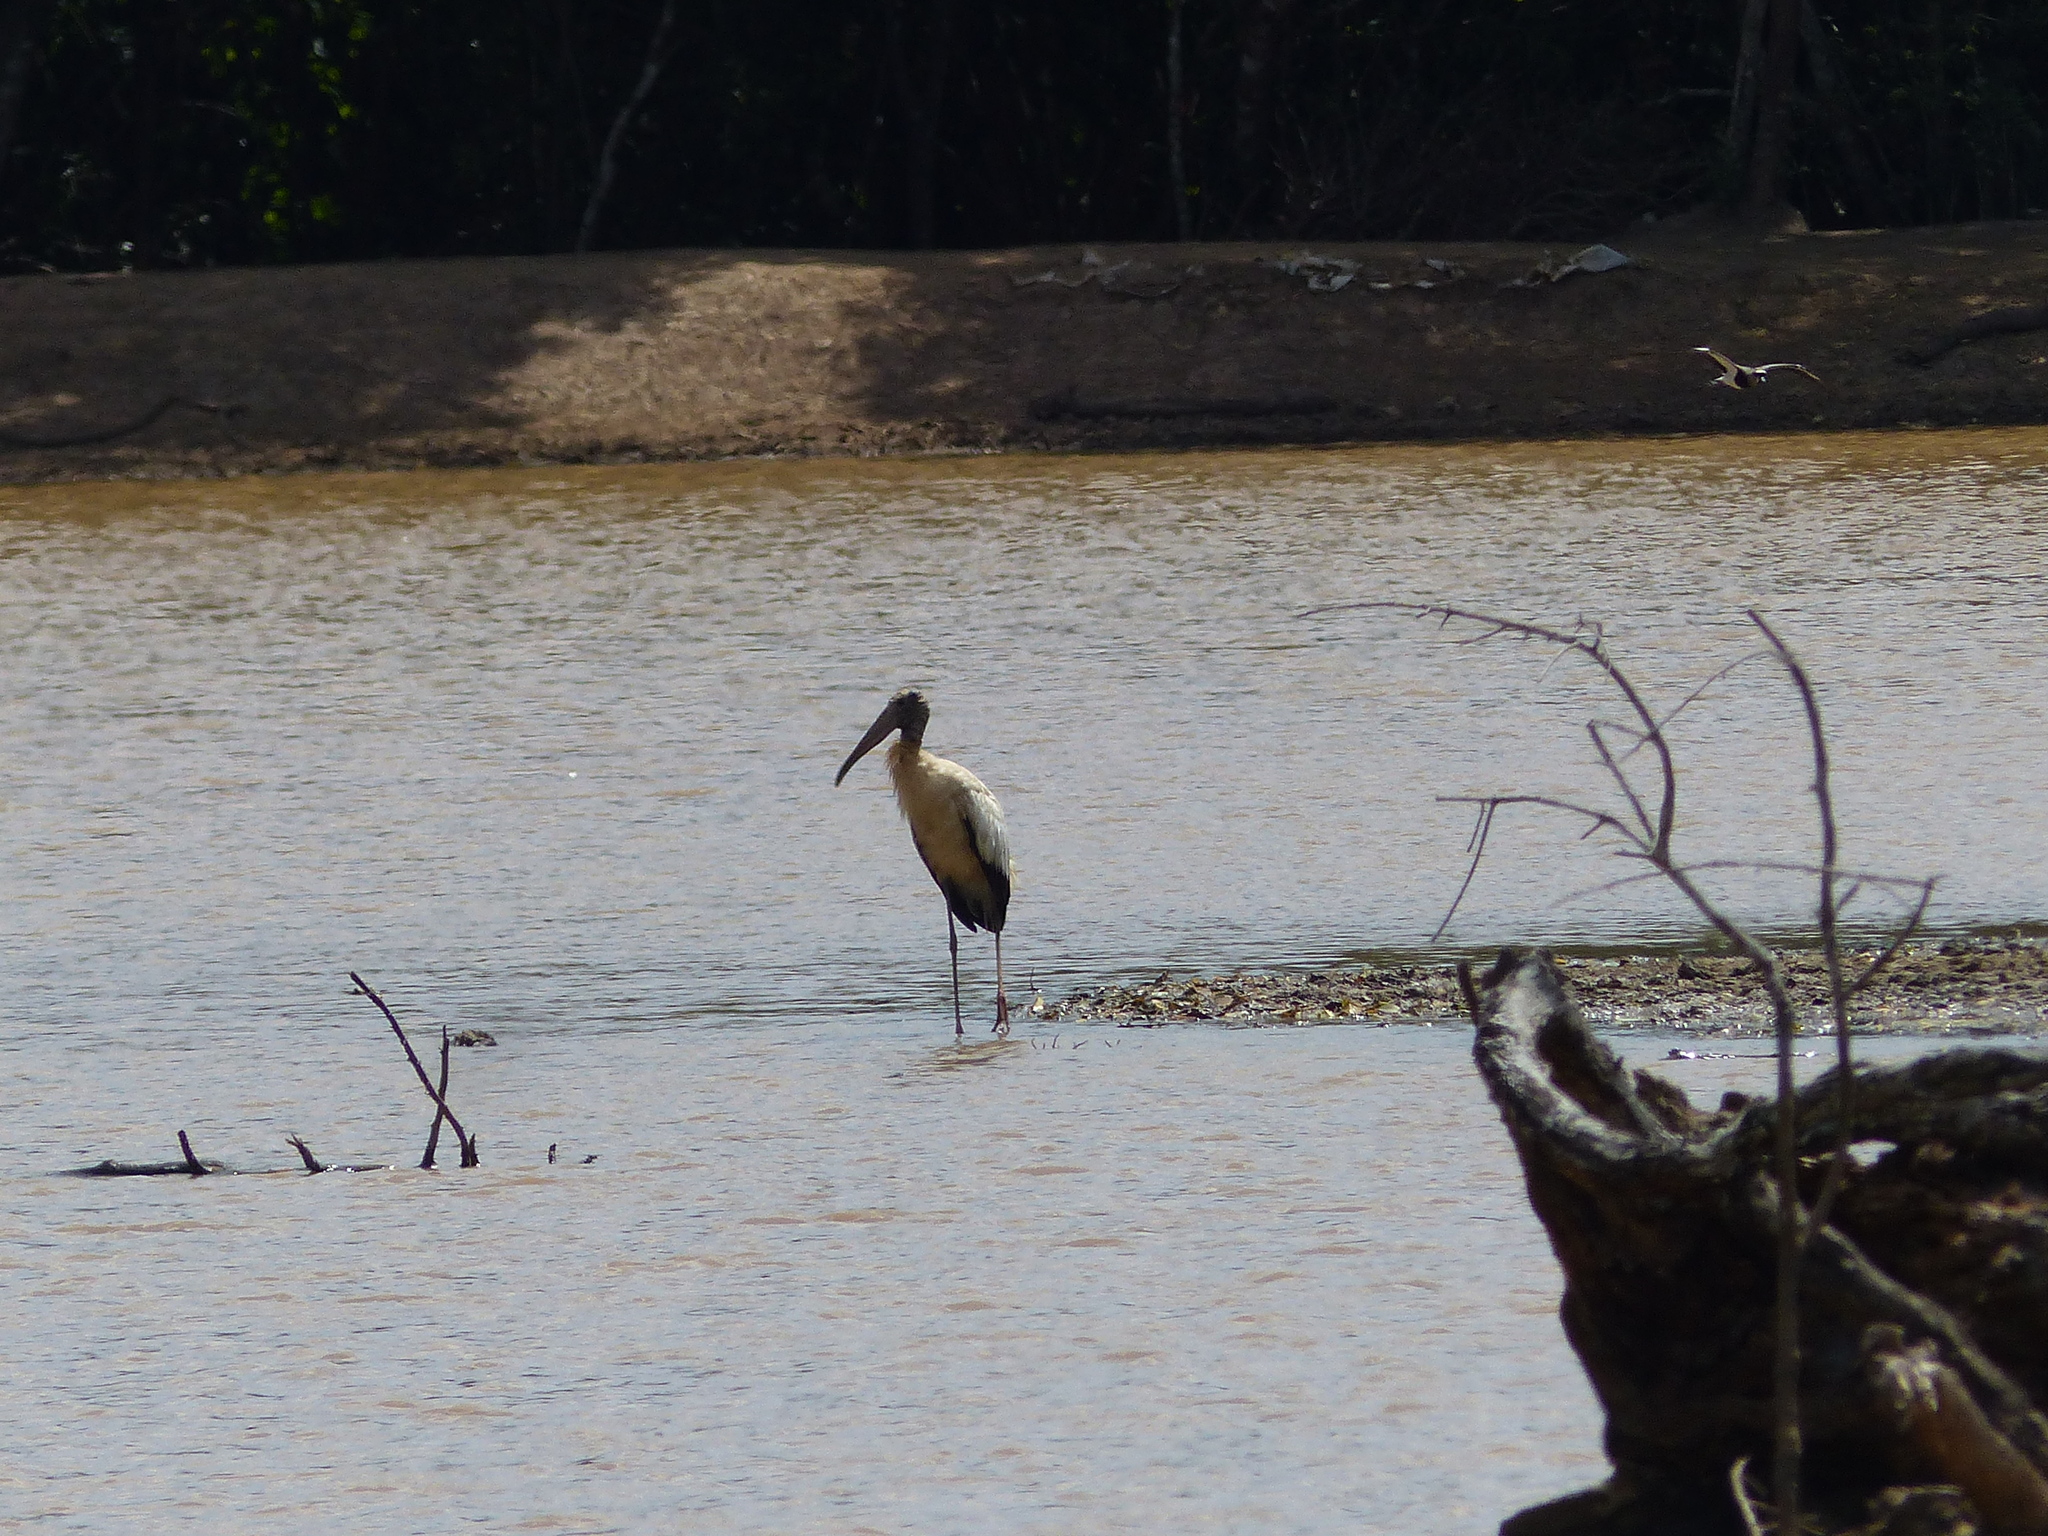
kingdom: Animalia
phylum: Chordata
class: Aves
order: Ciconiiformes
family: Ciconiidae
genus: Mycteria
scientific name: Mycteria americana
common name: Wood stork
